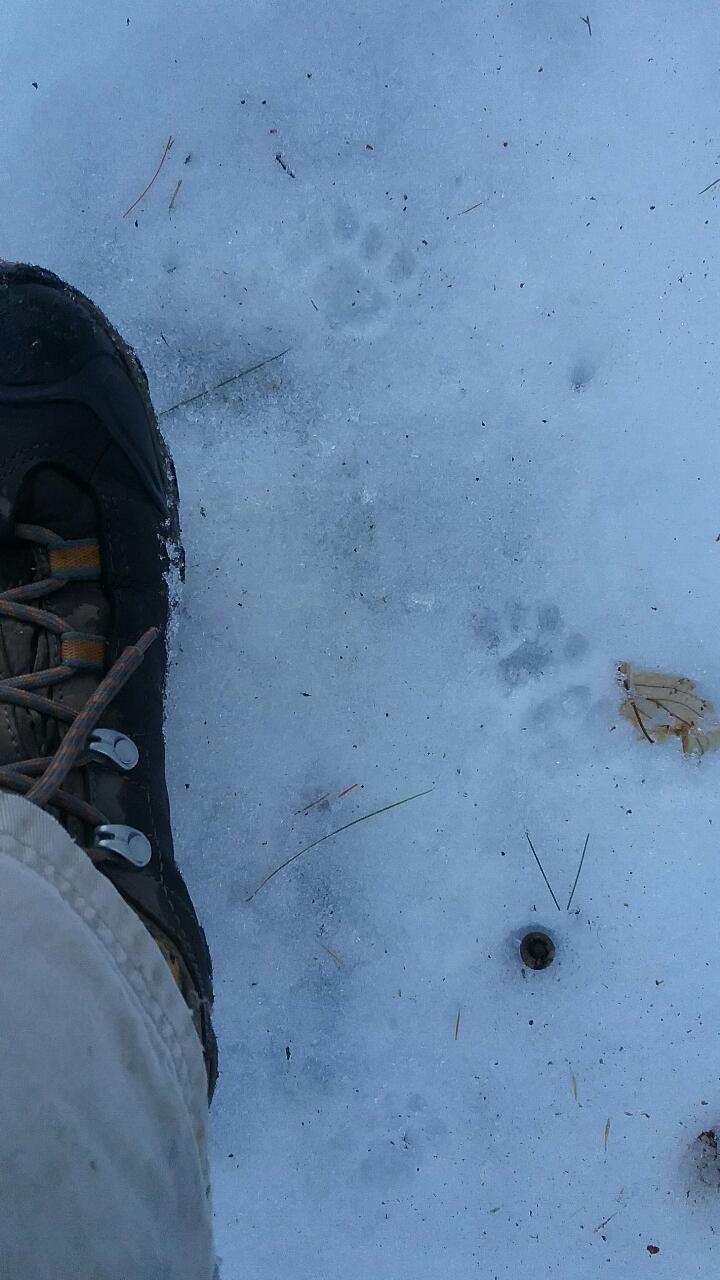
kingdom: Animalia
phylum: Chordata
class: Mammalia
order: Carnivora
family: Felidae
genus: Felis
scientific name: Felis catus
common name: Domestic cat
